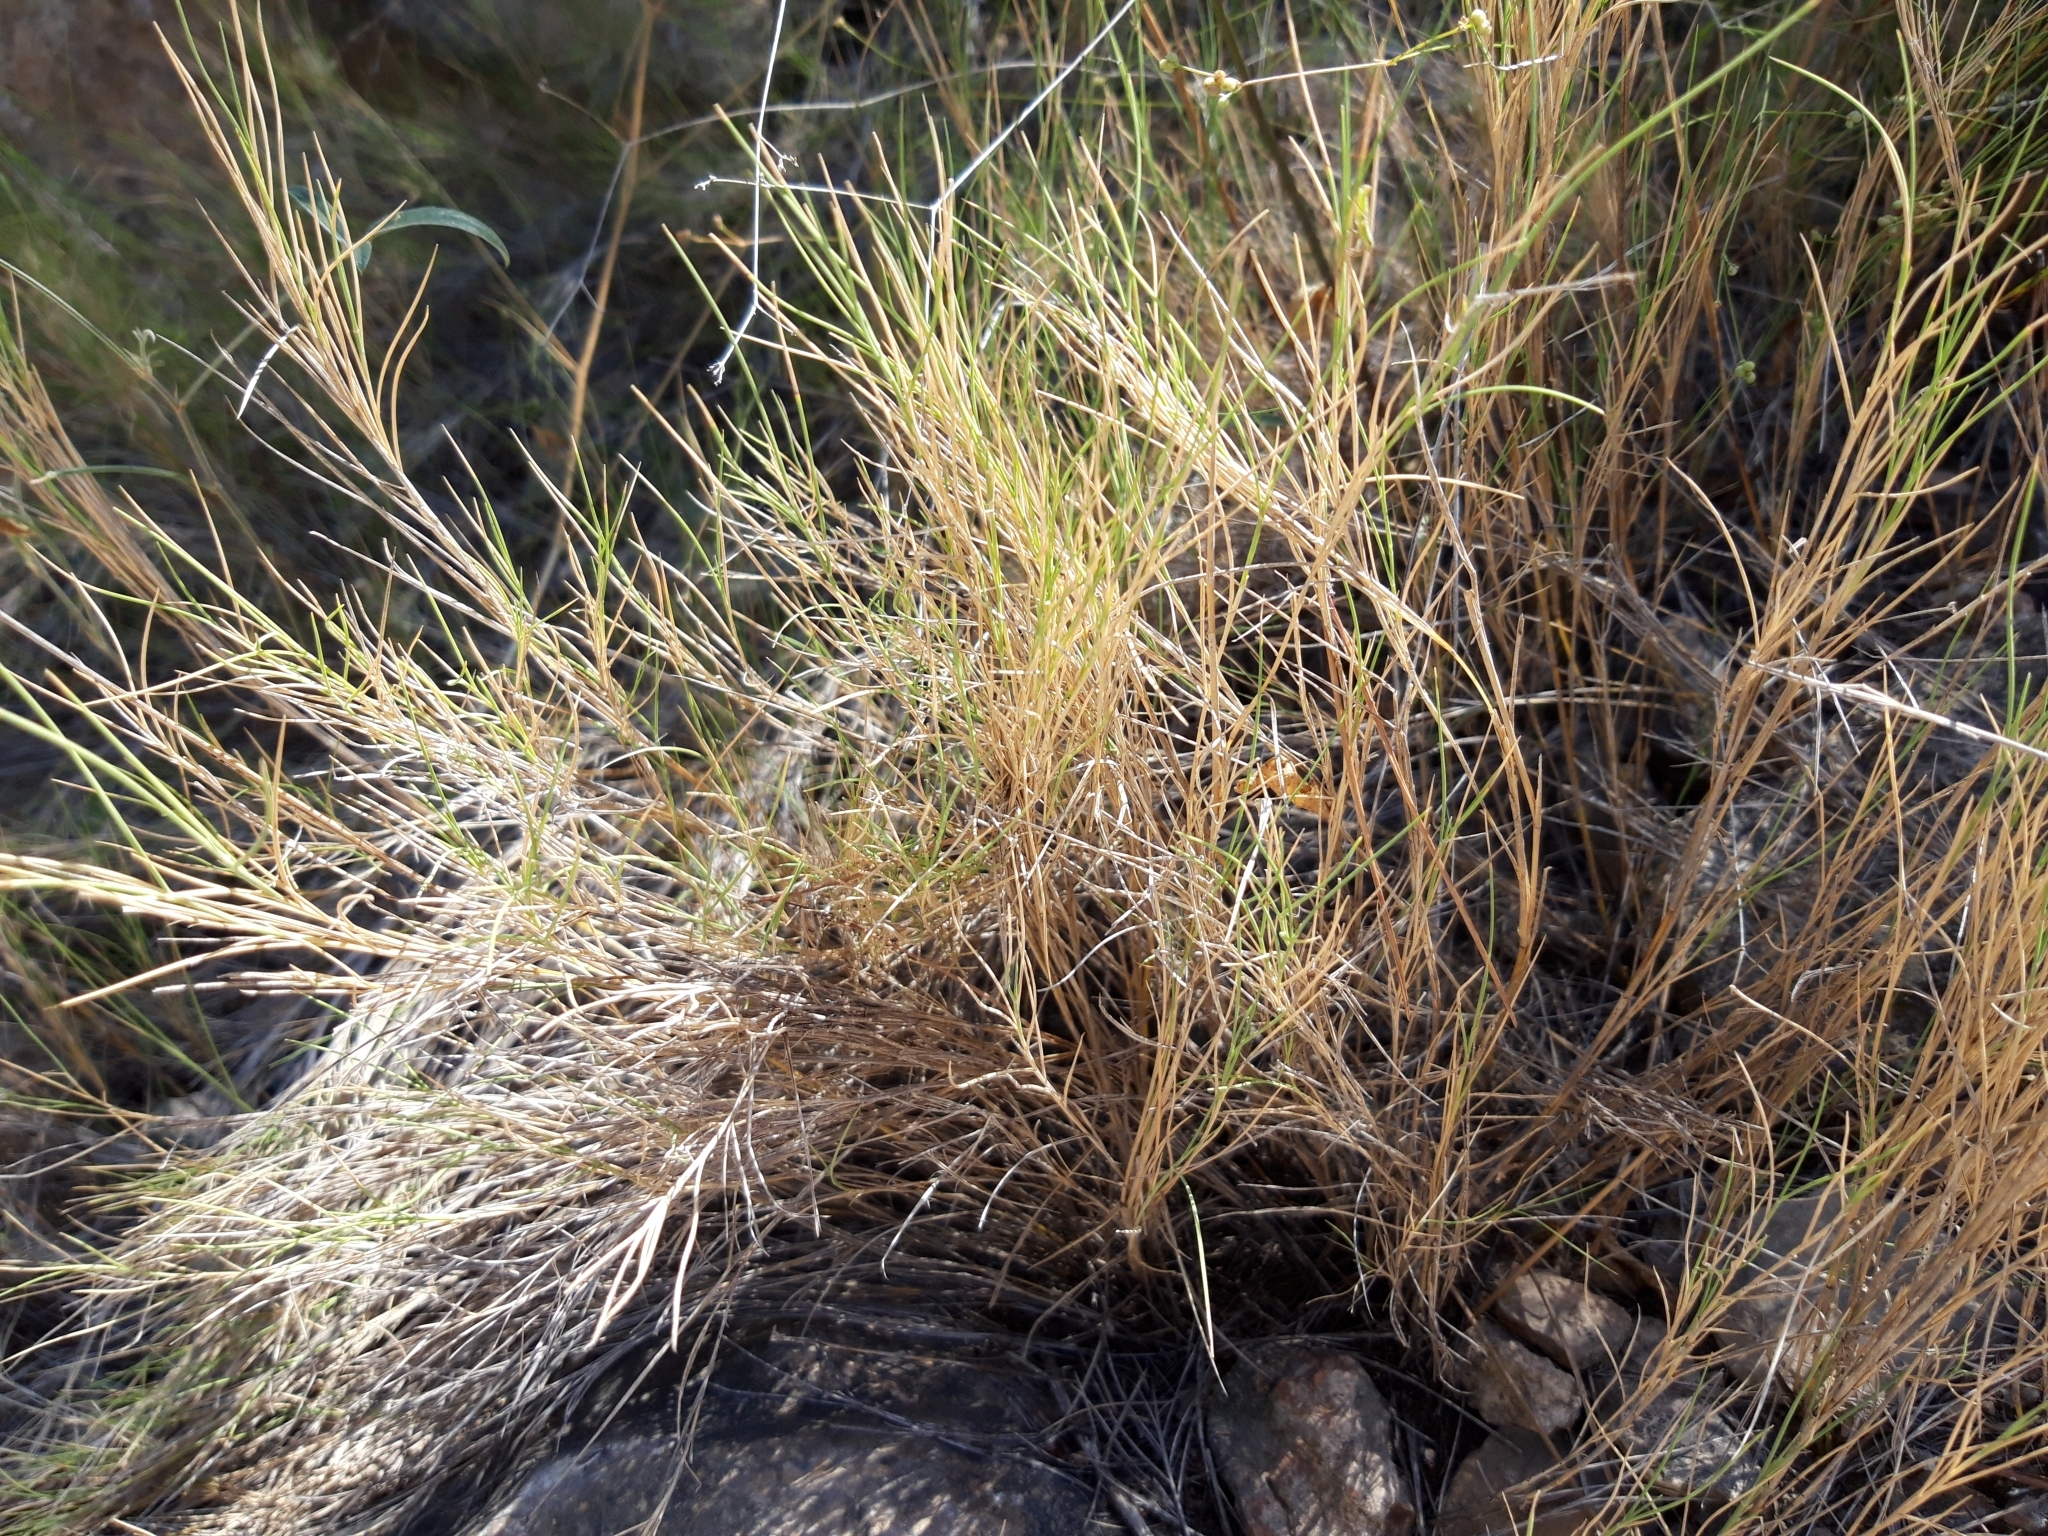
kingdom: Plantae
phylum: Tracheophyta
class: Liliopsida
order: Poales
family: Poaceae
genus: Brachypodium
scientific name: Brachypodium retusum
